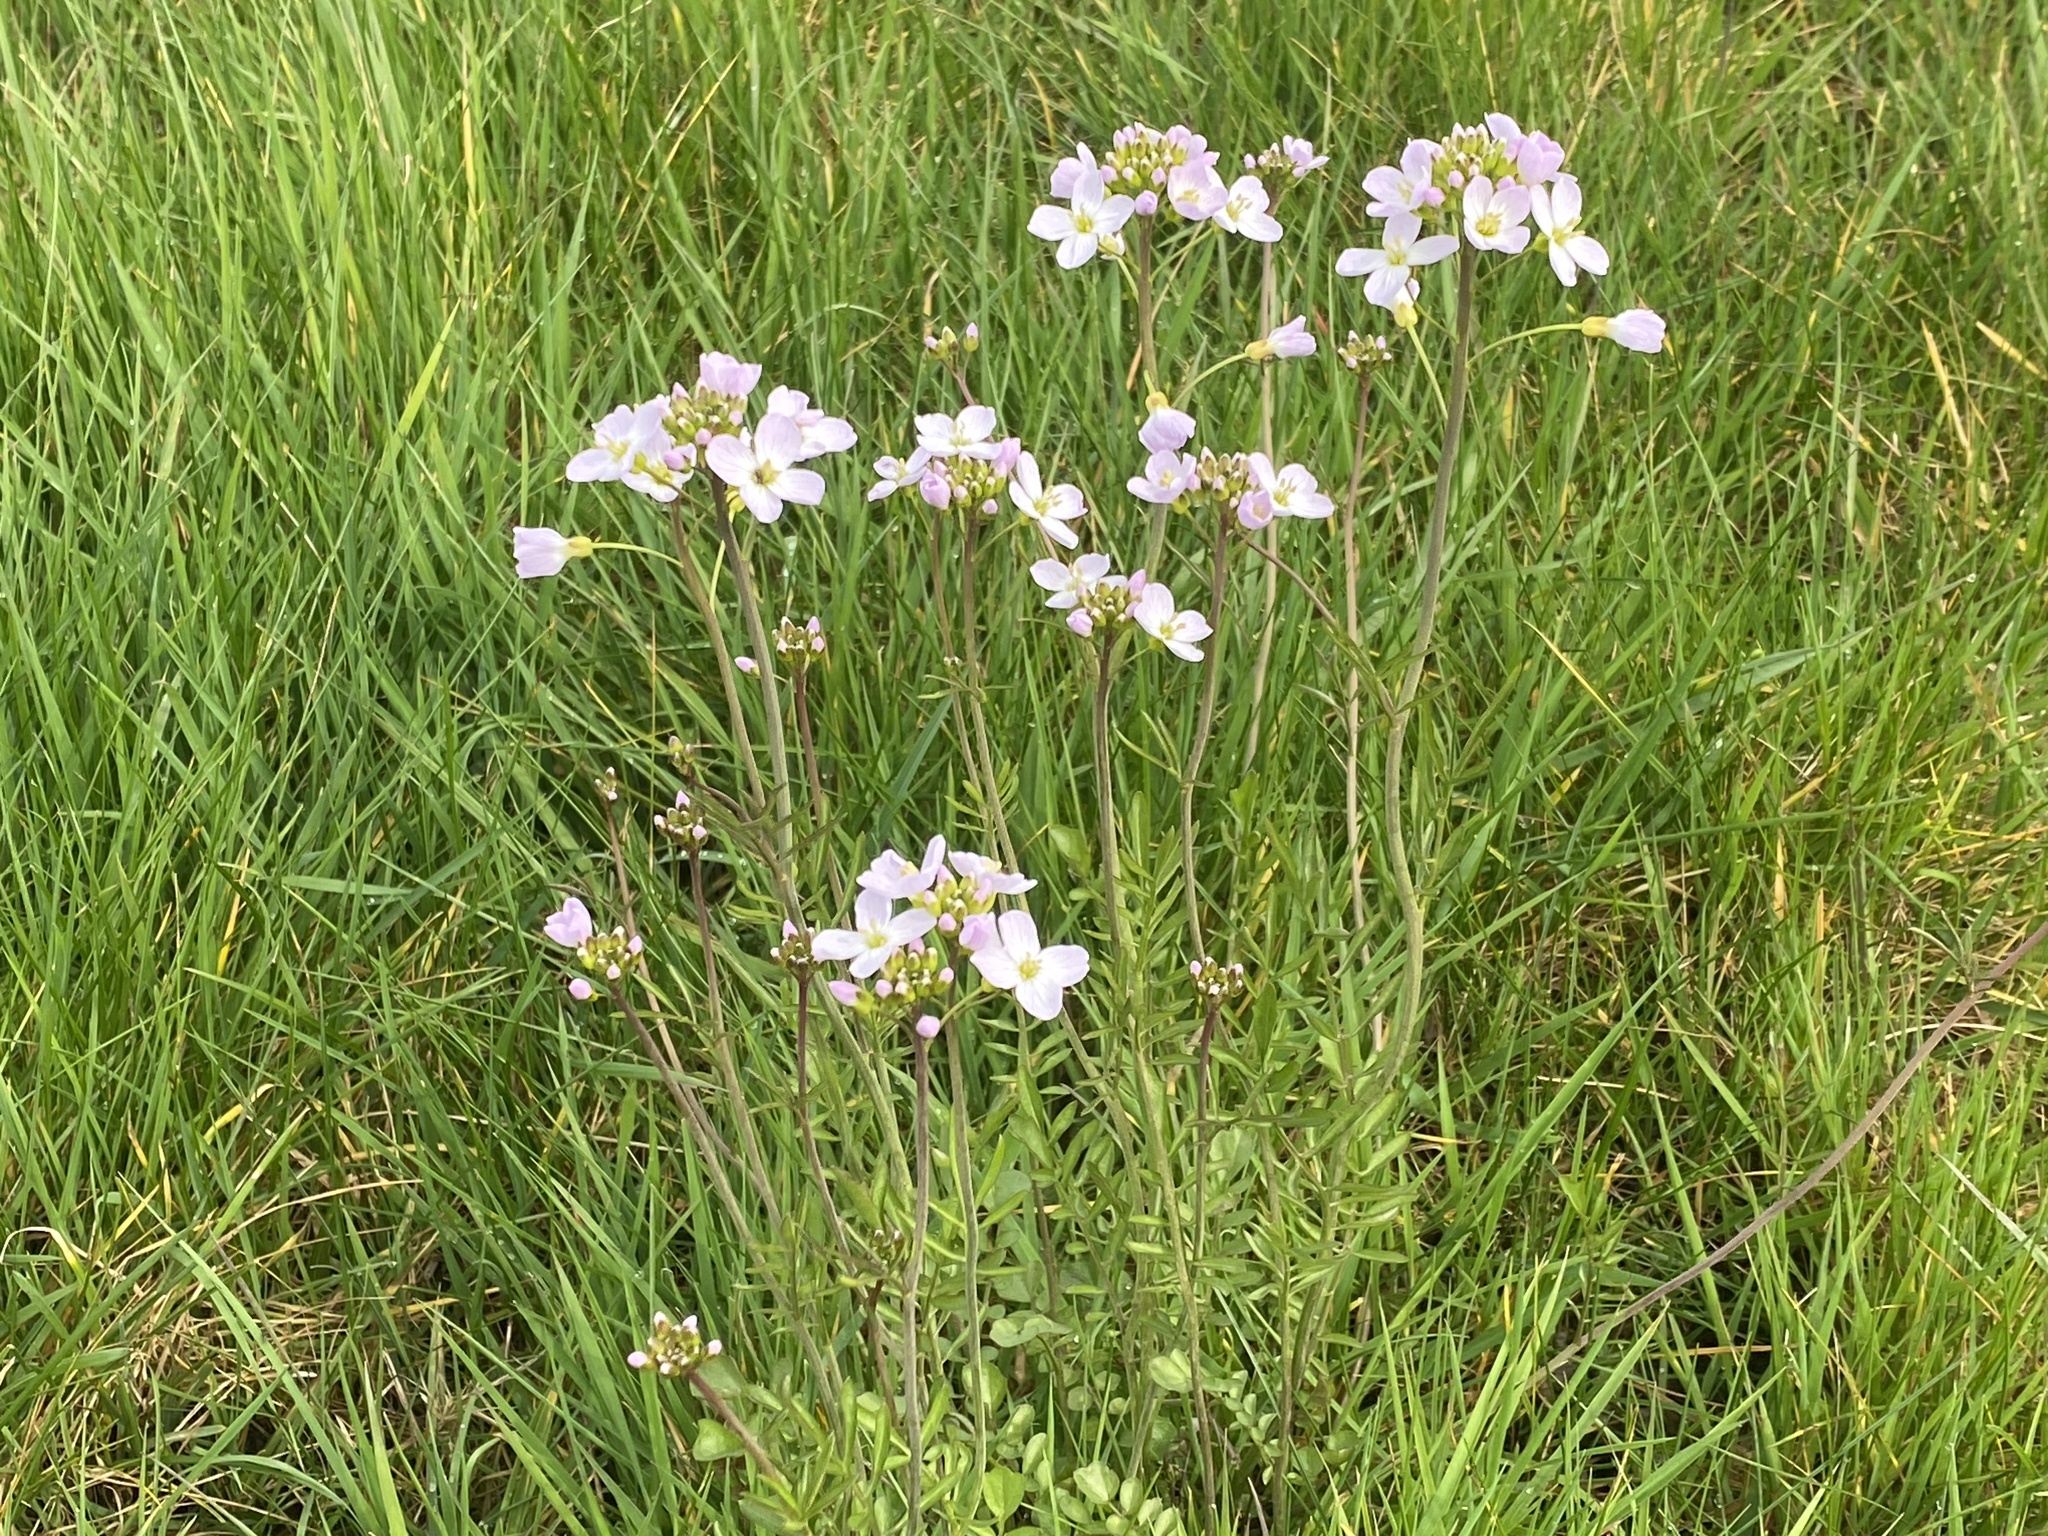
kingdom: Plantae
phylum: Tracheophyta
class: Magnoliopsida
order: Brassicales
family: Brassicaceae
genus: Cardamine
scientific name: Cardamine pratensis
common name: Cuckoo flower
